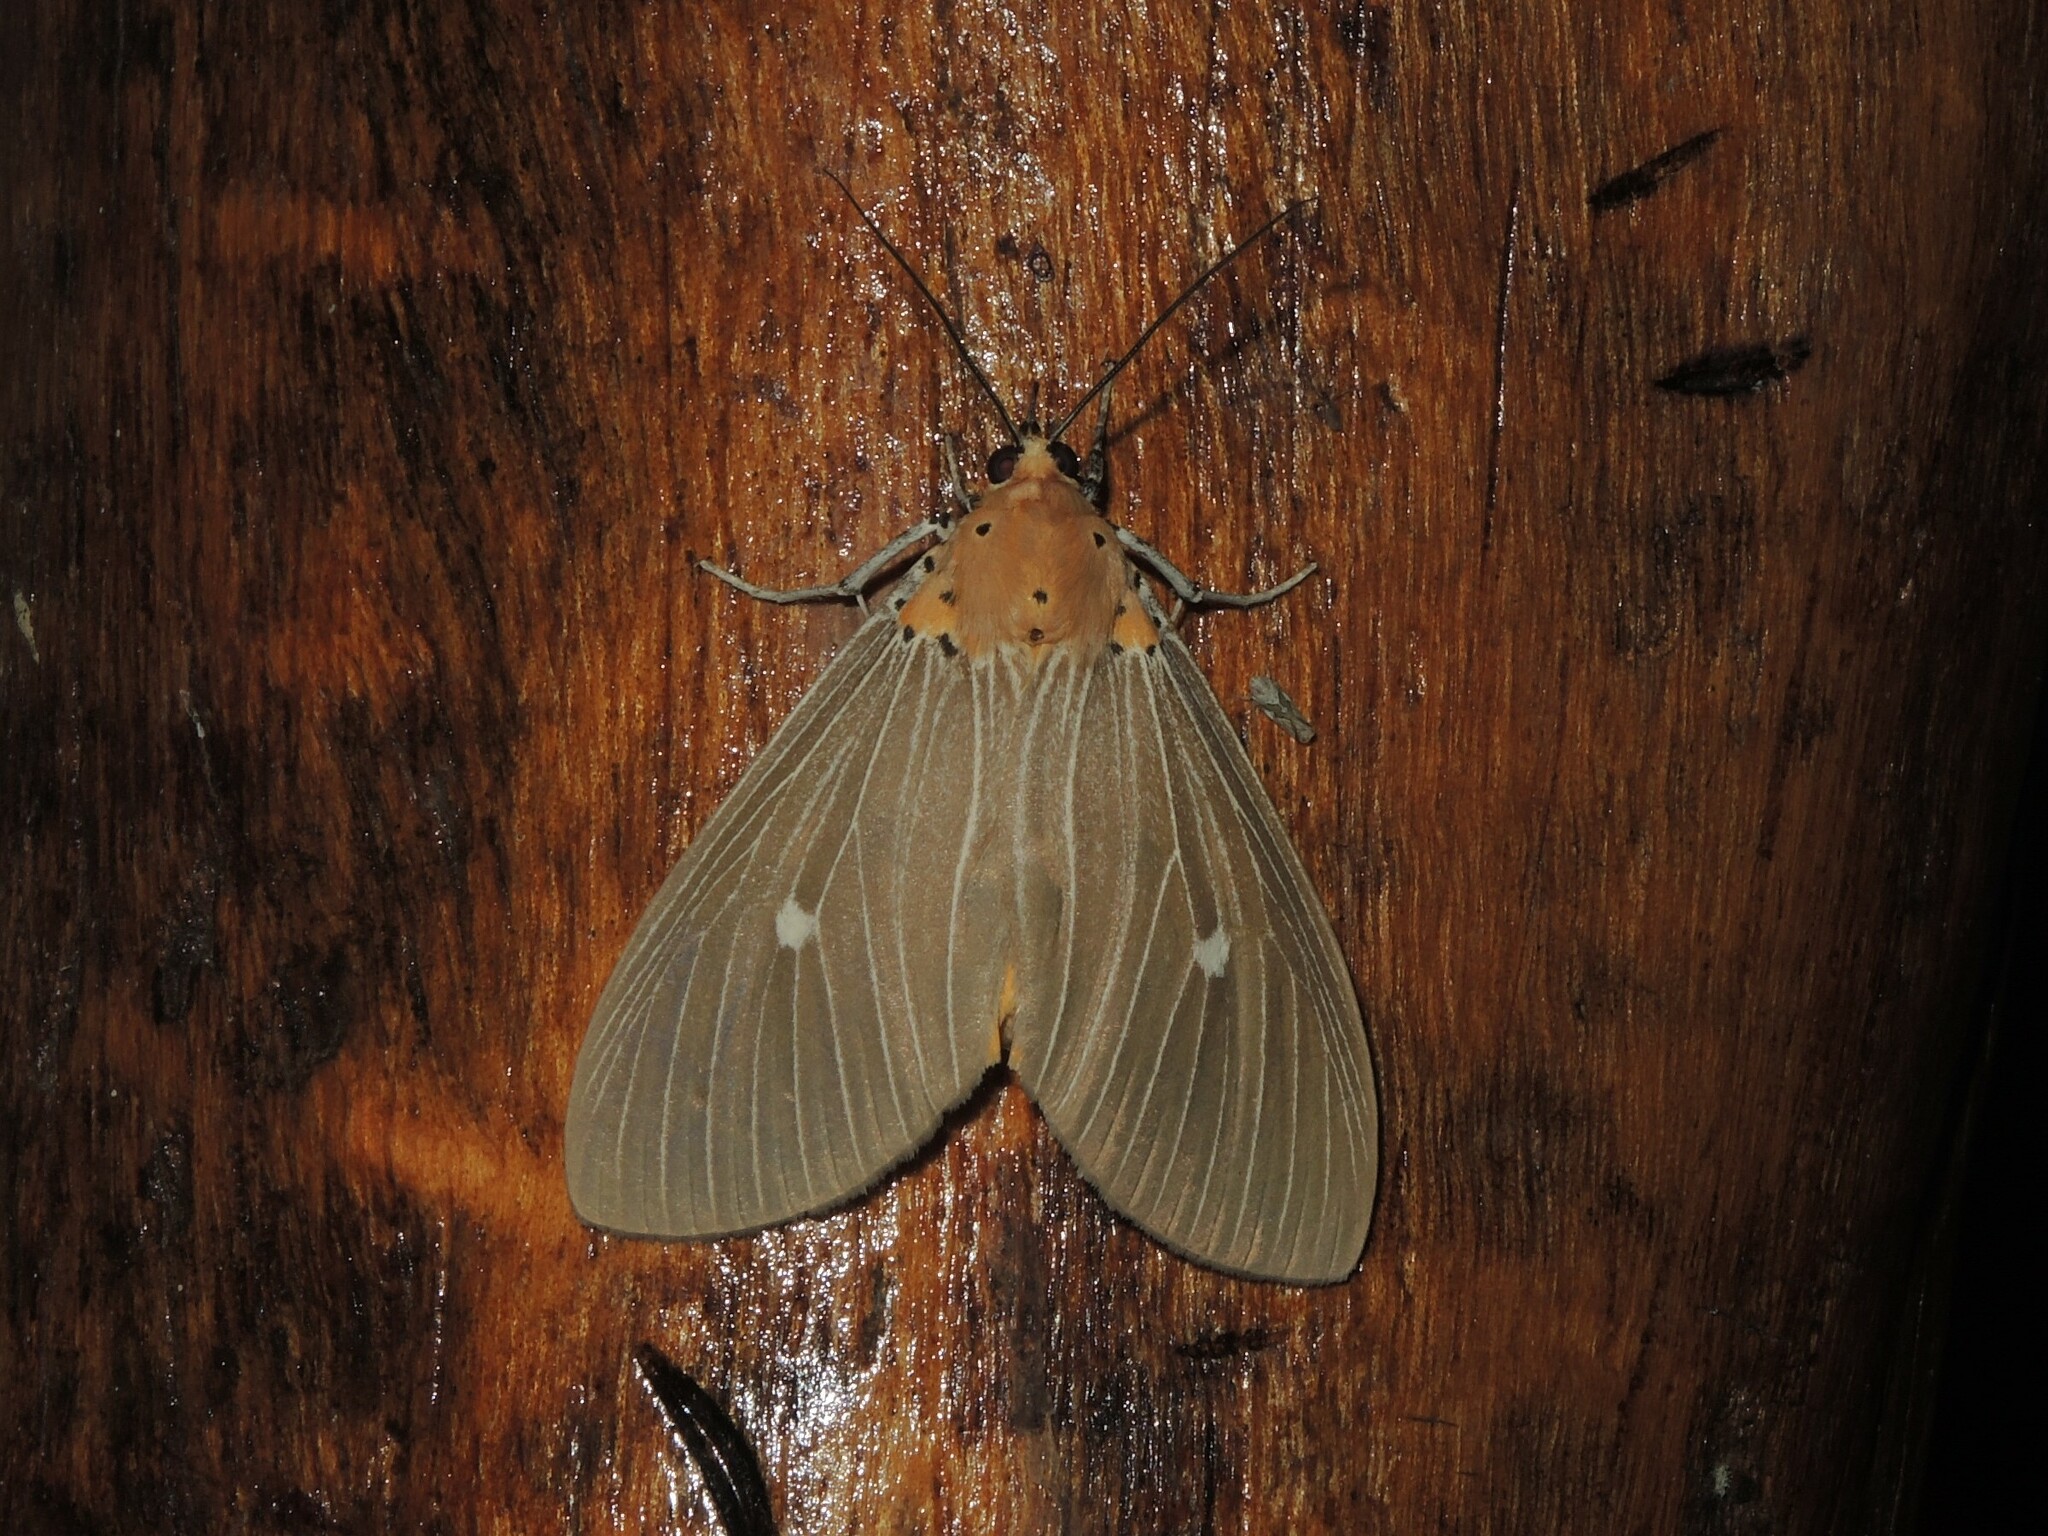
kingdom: Animalia
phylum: Arthropoda
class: Insecta
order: Lepidoptera
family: Erebidae
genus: Asota
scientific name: Asota caricae
